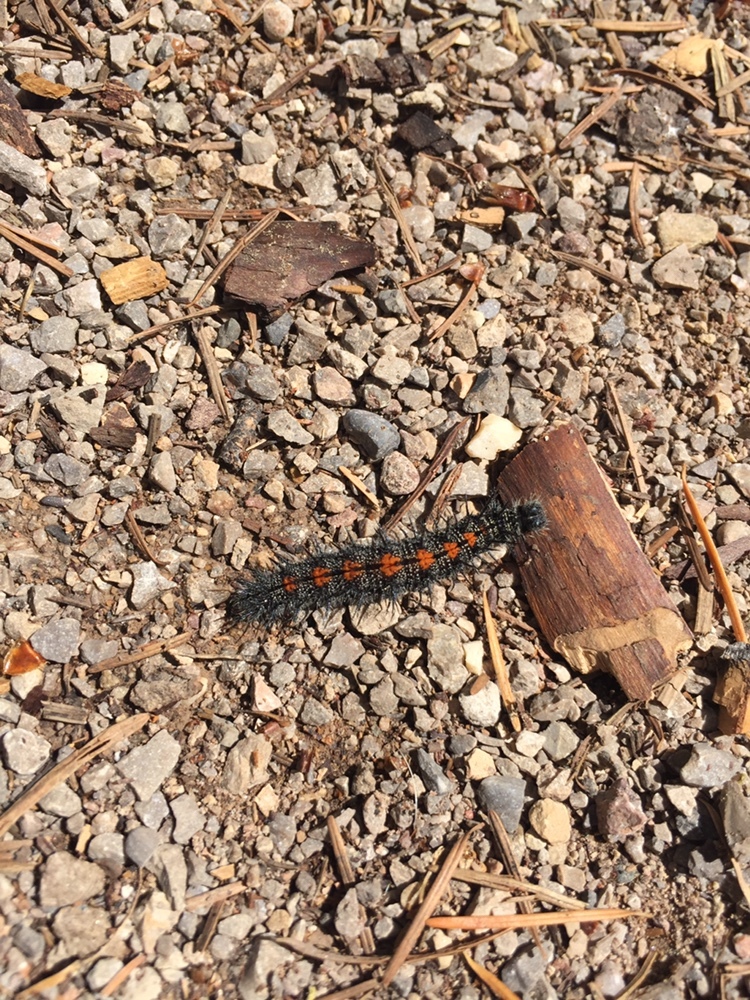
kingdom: Animalia
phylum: Arthropoda
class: Insecta
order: Lepidoptera
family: Nymphalidae
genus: Nymphalis
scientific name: Nymphalis antiopa
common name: Camberwell beauty
